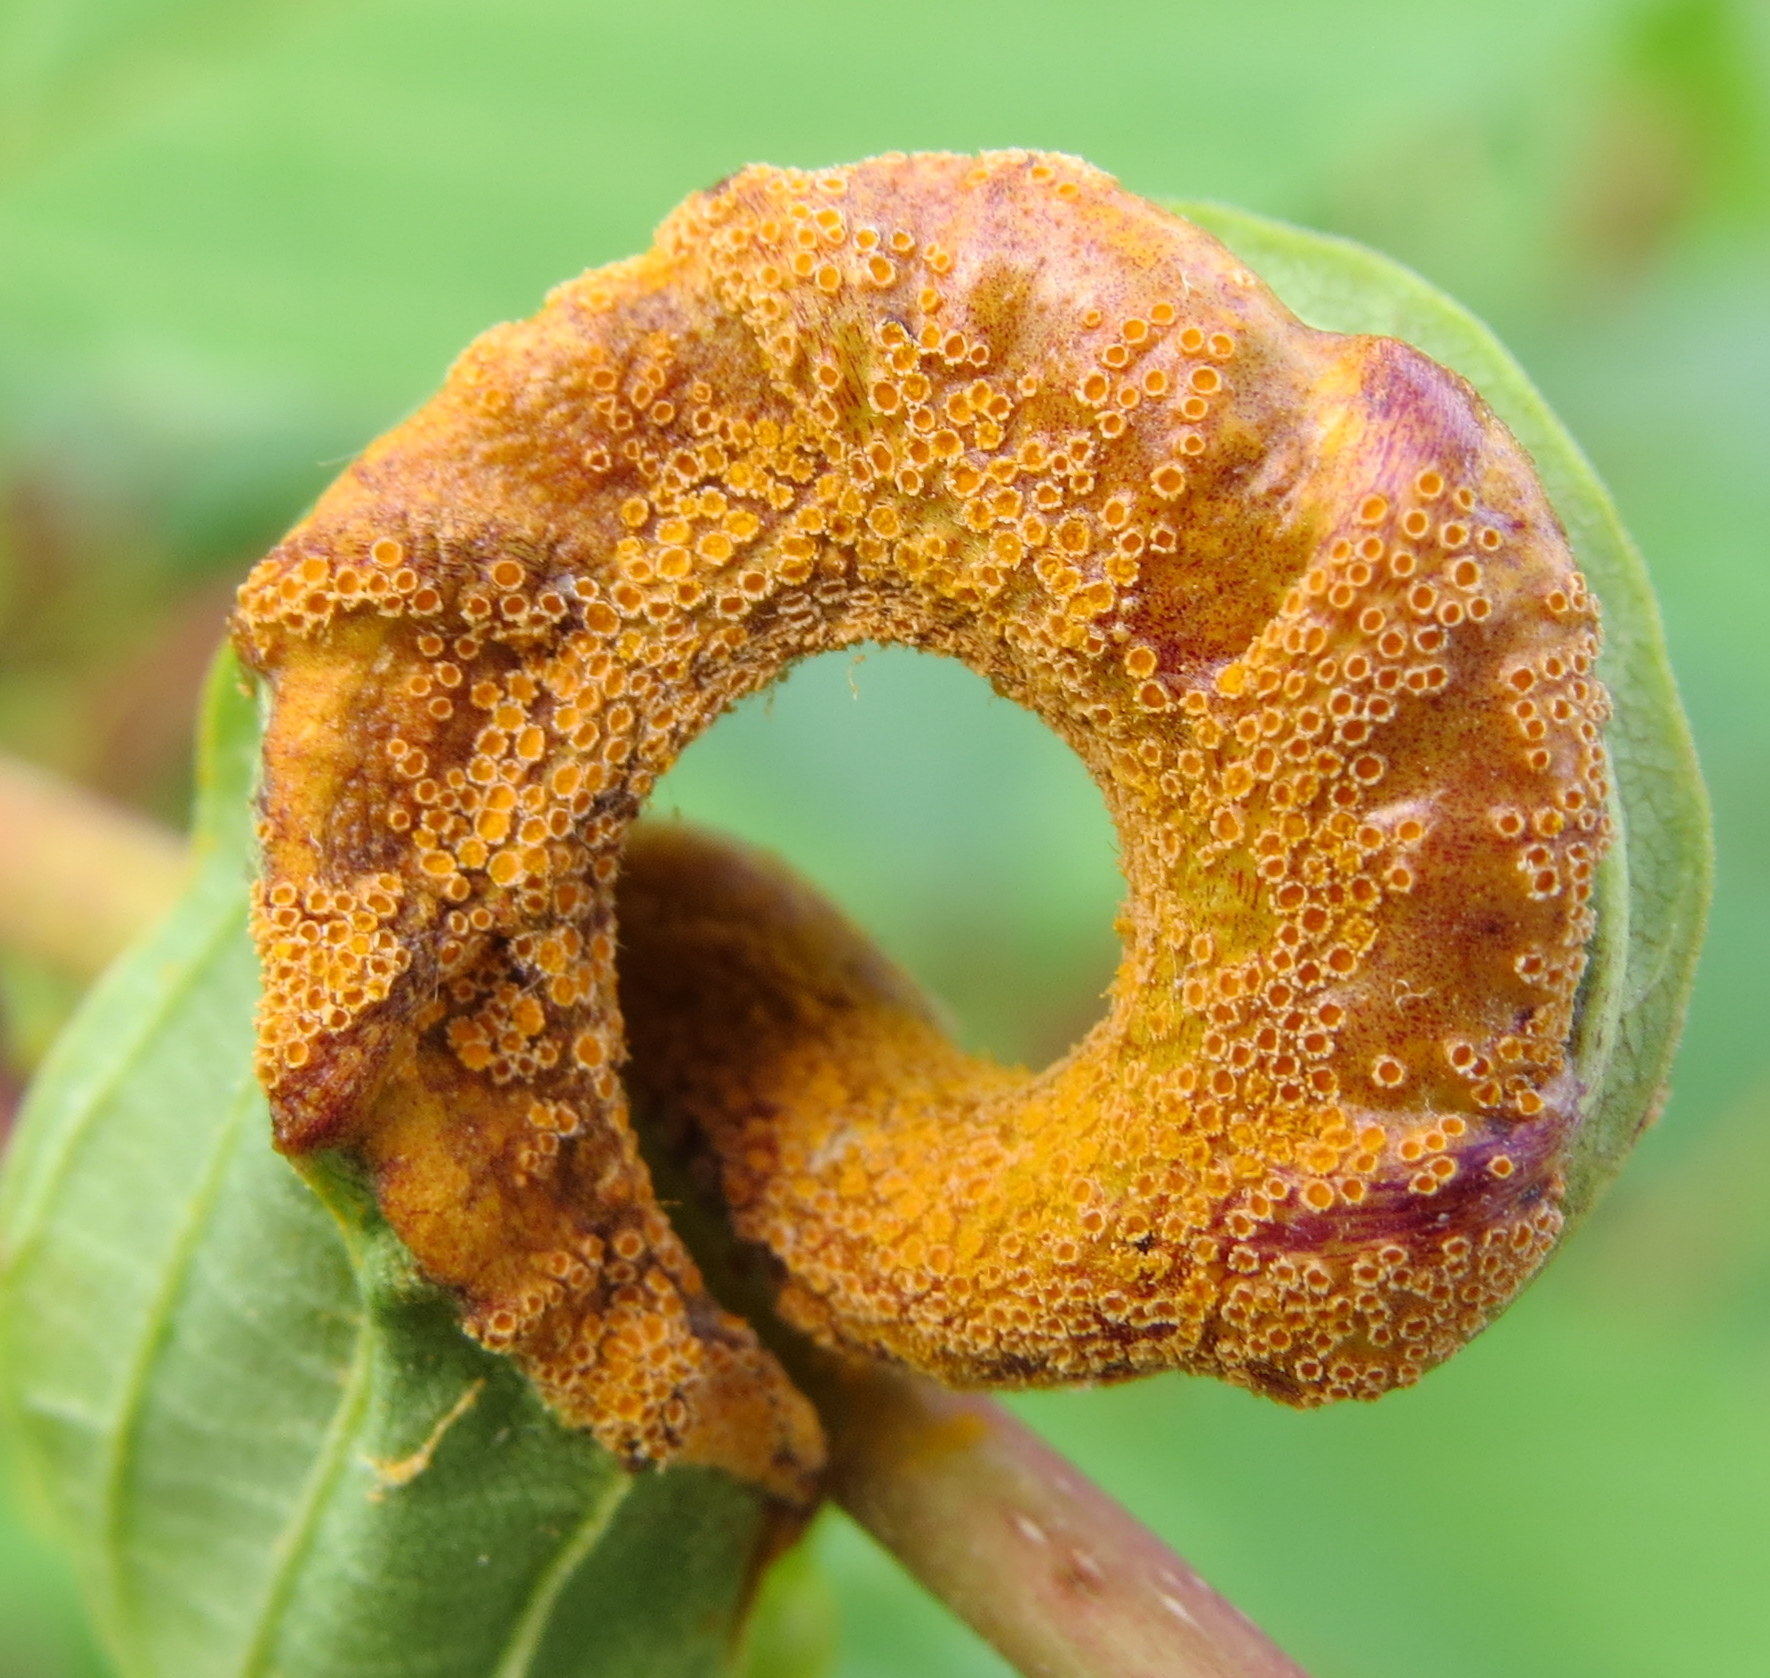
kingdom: Fungi
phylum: Basidiomycota
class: Pucciniomycetes
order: Pucciniales
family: Pucciniaceae
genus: Puccinia
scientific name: Puccinia coronata
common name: Crown rust
